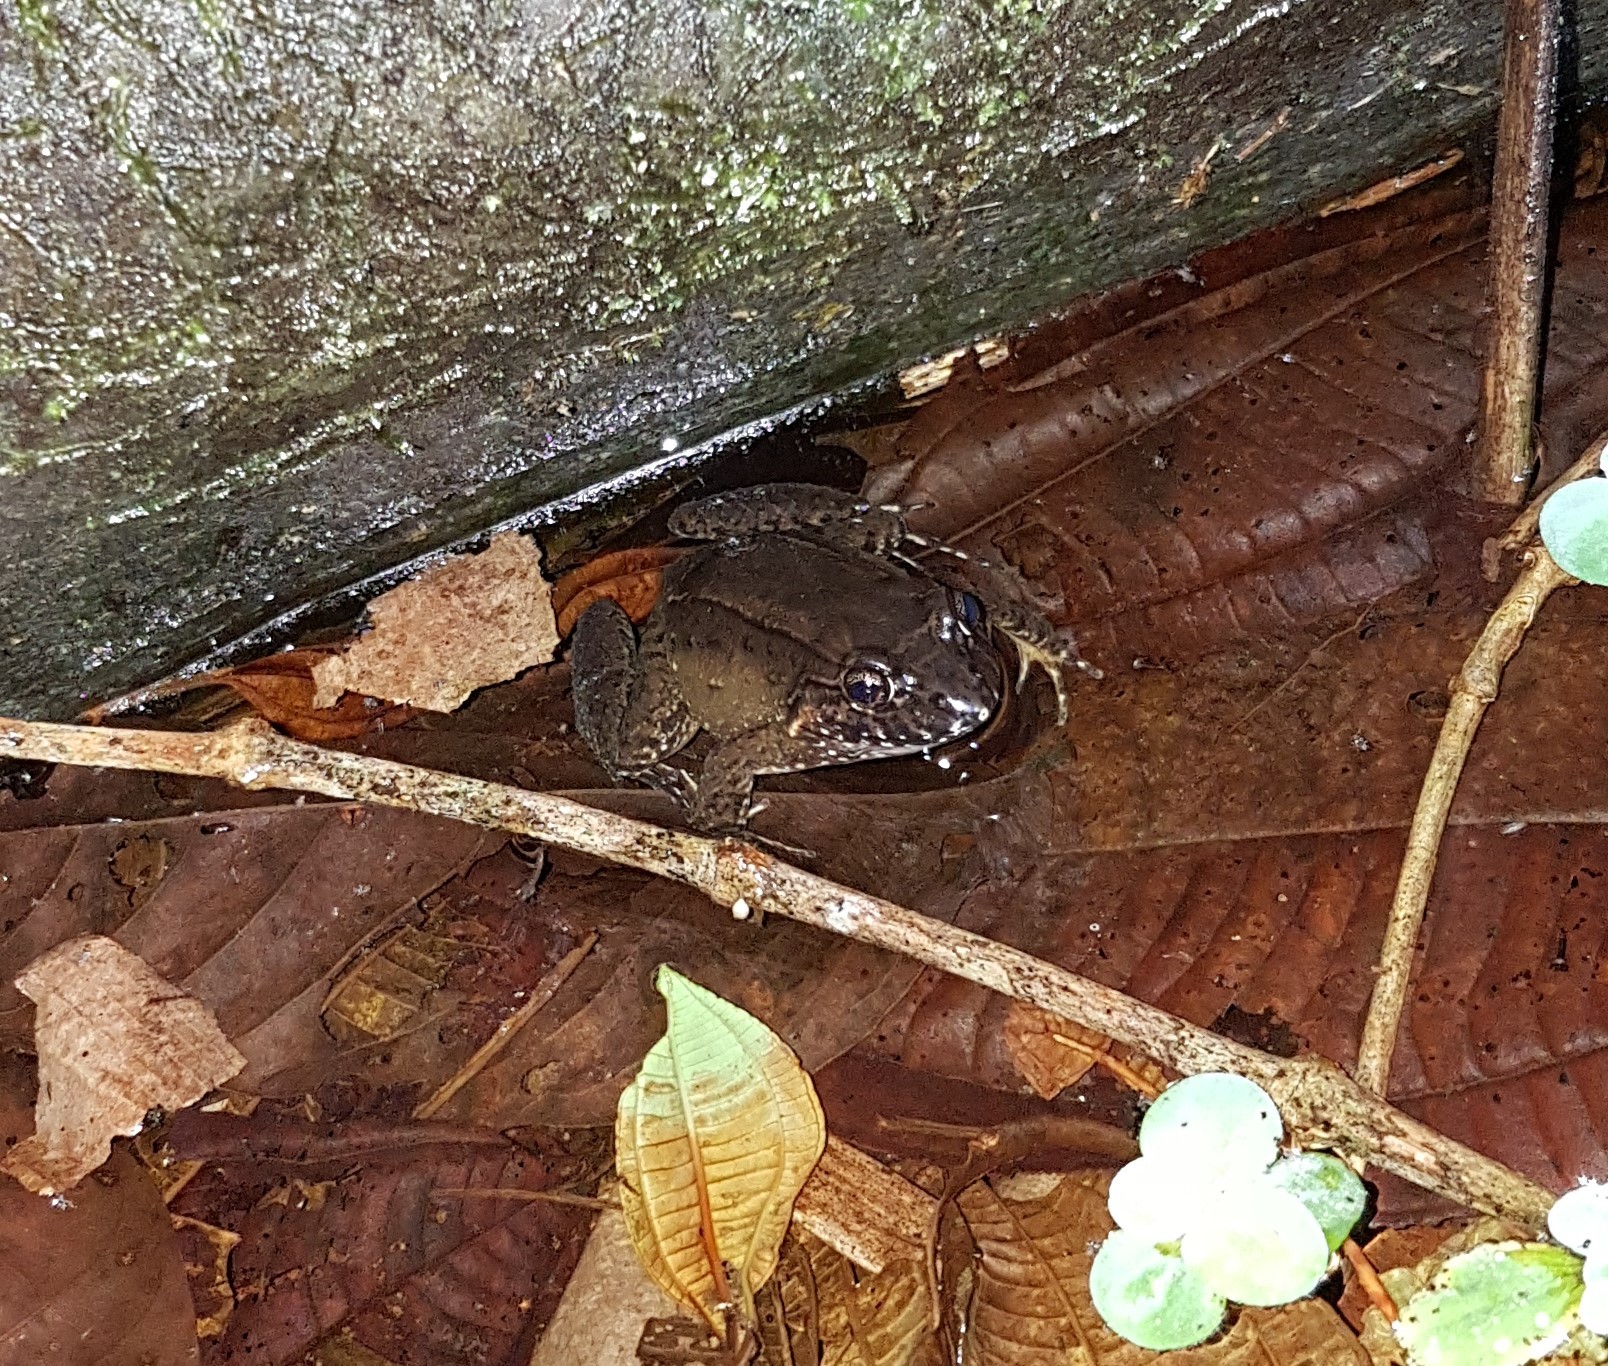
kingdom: Animalia
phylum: Chordata
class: Amphibia
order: Anura
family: Leptodactylidae
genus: Leptodactylus
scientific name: Leptodactylus melanonotus
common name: Fringe-toed foamfrog
